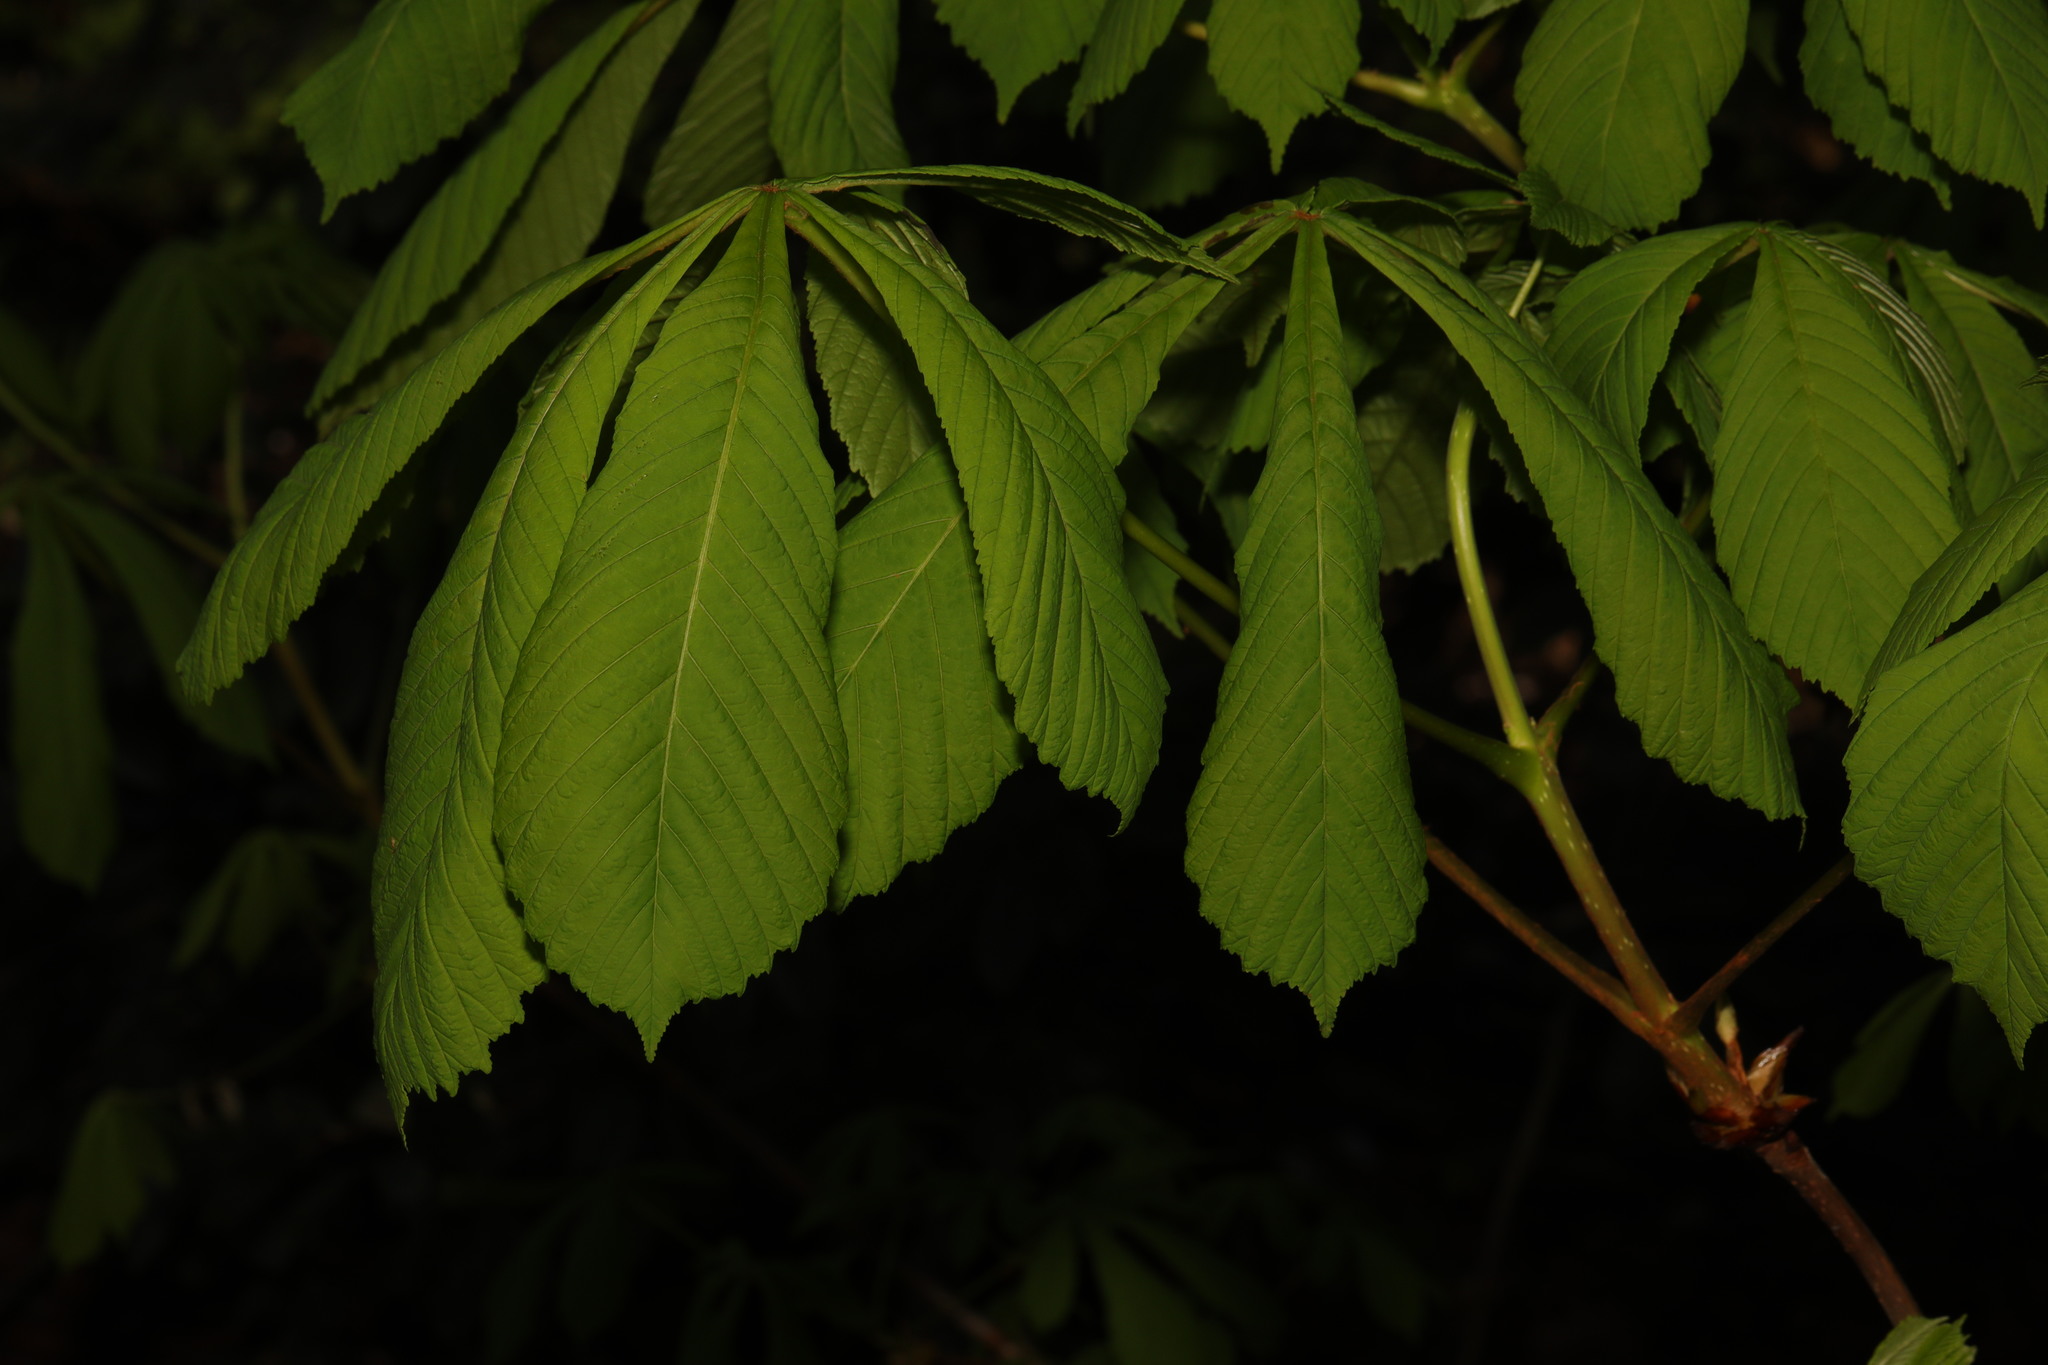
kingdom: Plantae
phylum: Tracheophyta
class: Magnoliopsida
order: Sapindales
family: Sapindaceae
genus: Aesculus
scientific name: Aesculus hippocastanum
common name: Horse-chestnut
